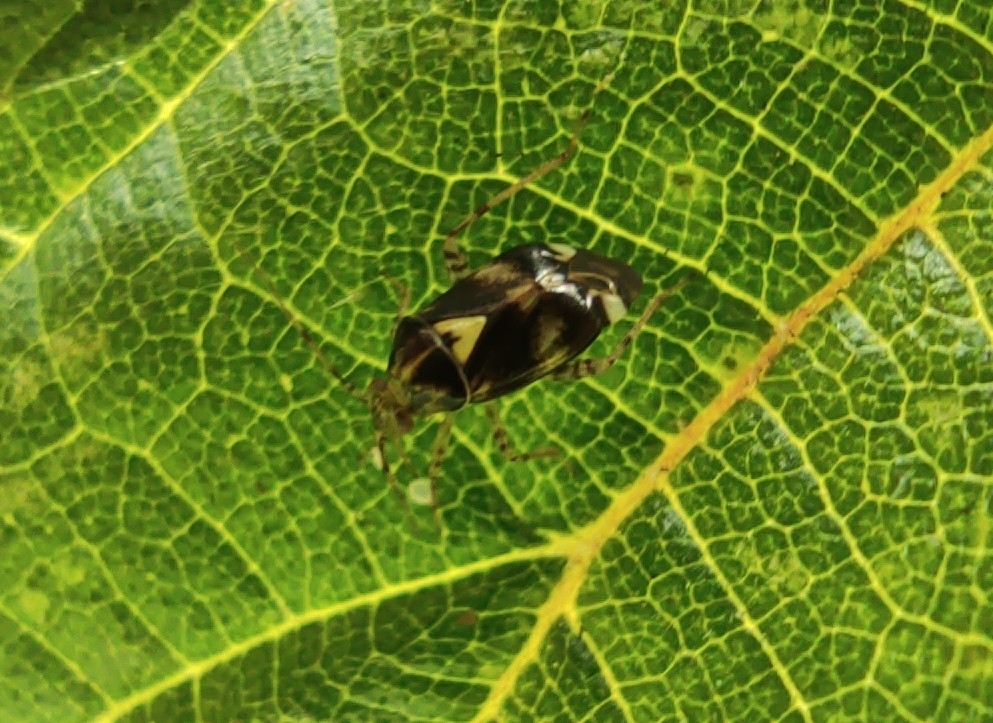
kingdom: Animalia
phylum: Arthropoda
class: Insecta
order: Hemiptera
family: Miridae
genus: Liocoris
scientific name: Liocoris tripustulatus
